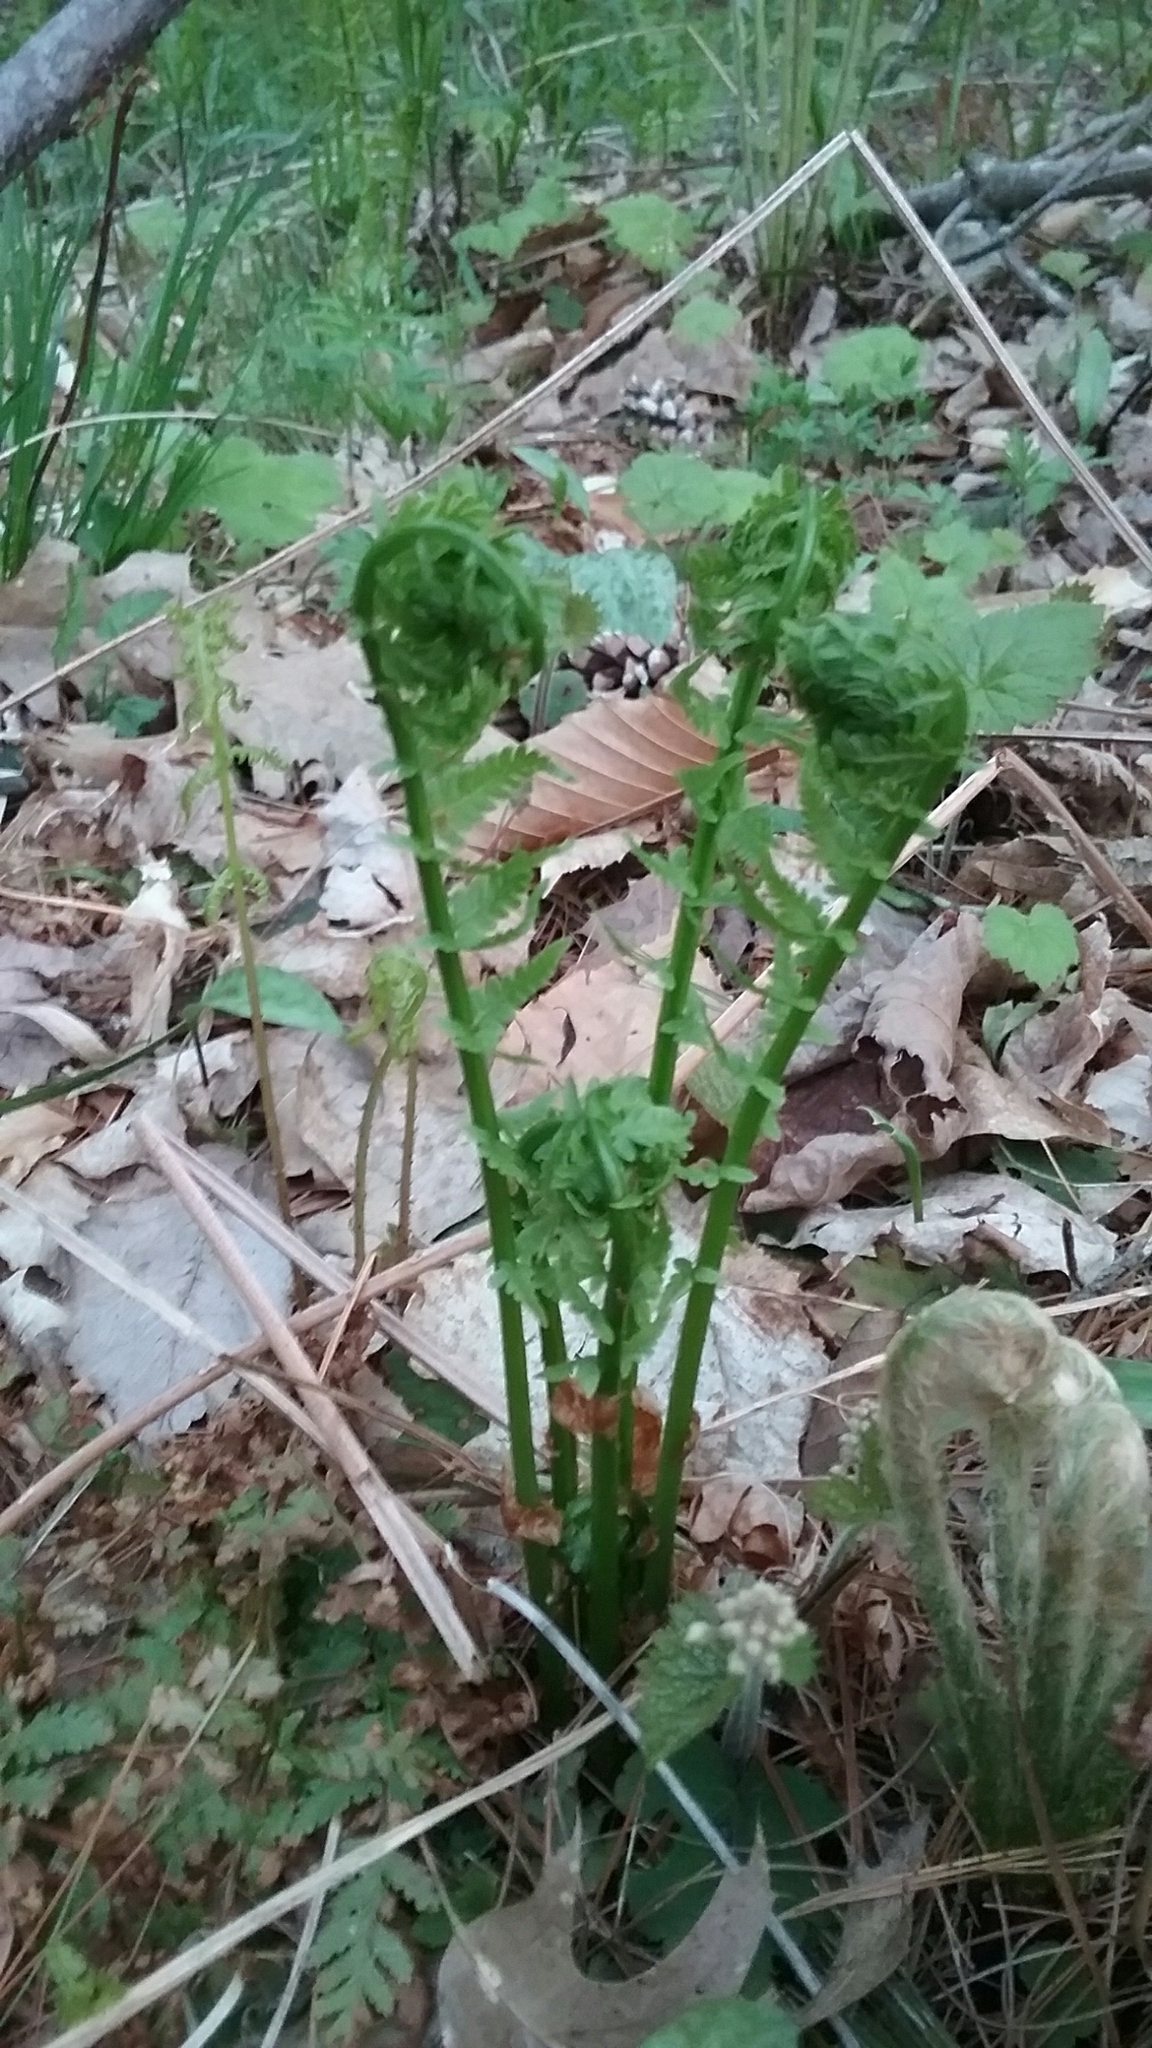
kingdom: Plantae
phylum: Tracheophyta
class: Polypodiopsida
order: Polypodiales
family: Onocleaceae
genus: Matteuccia
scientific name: Matteuccia struthiopteris
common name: Ostrich fern
